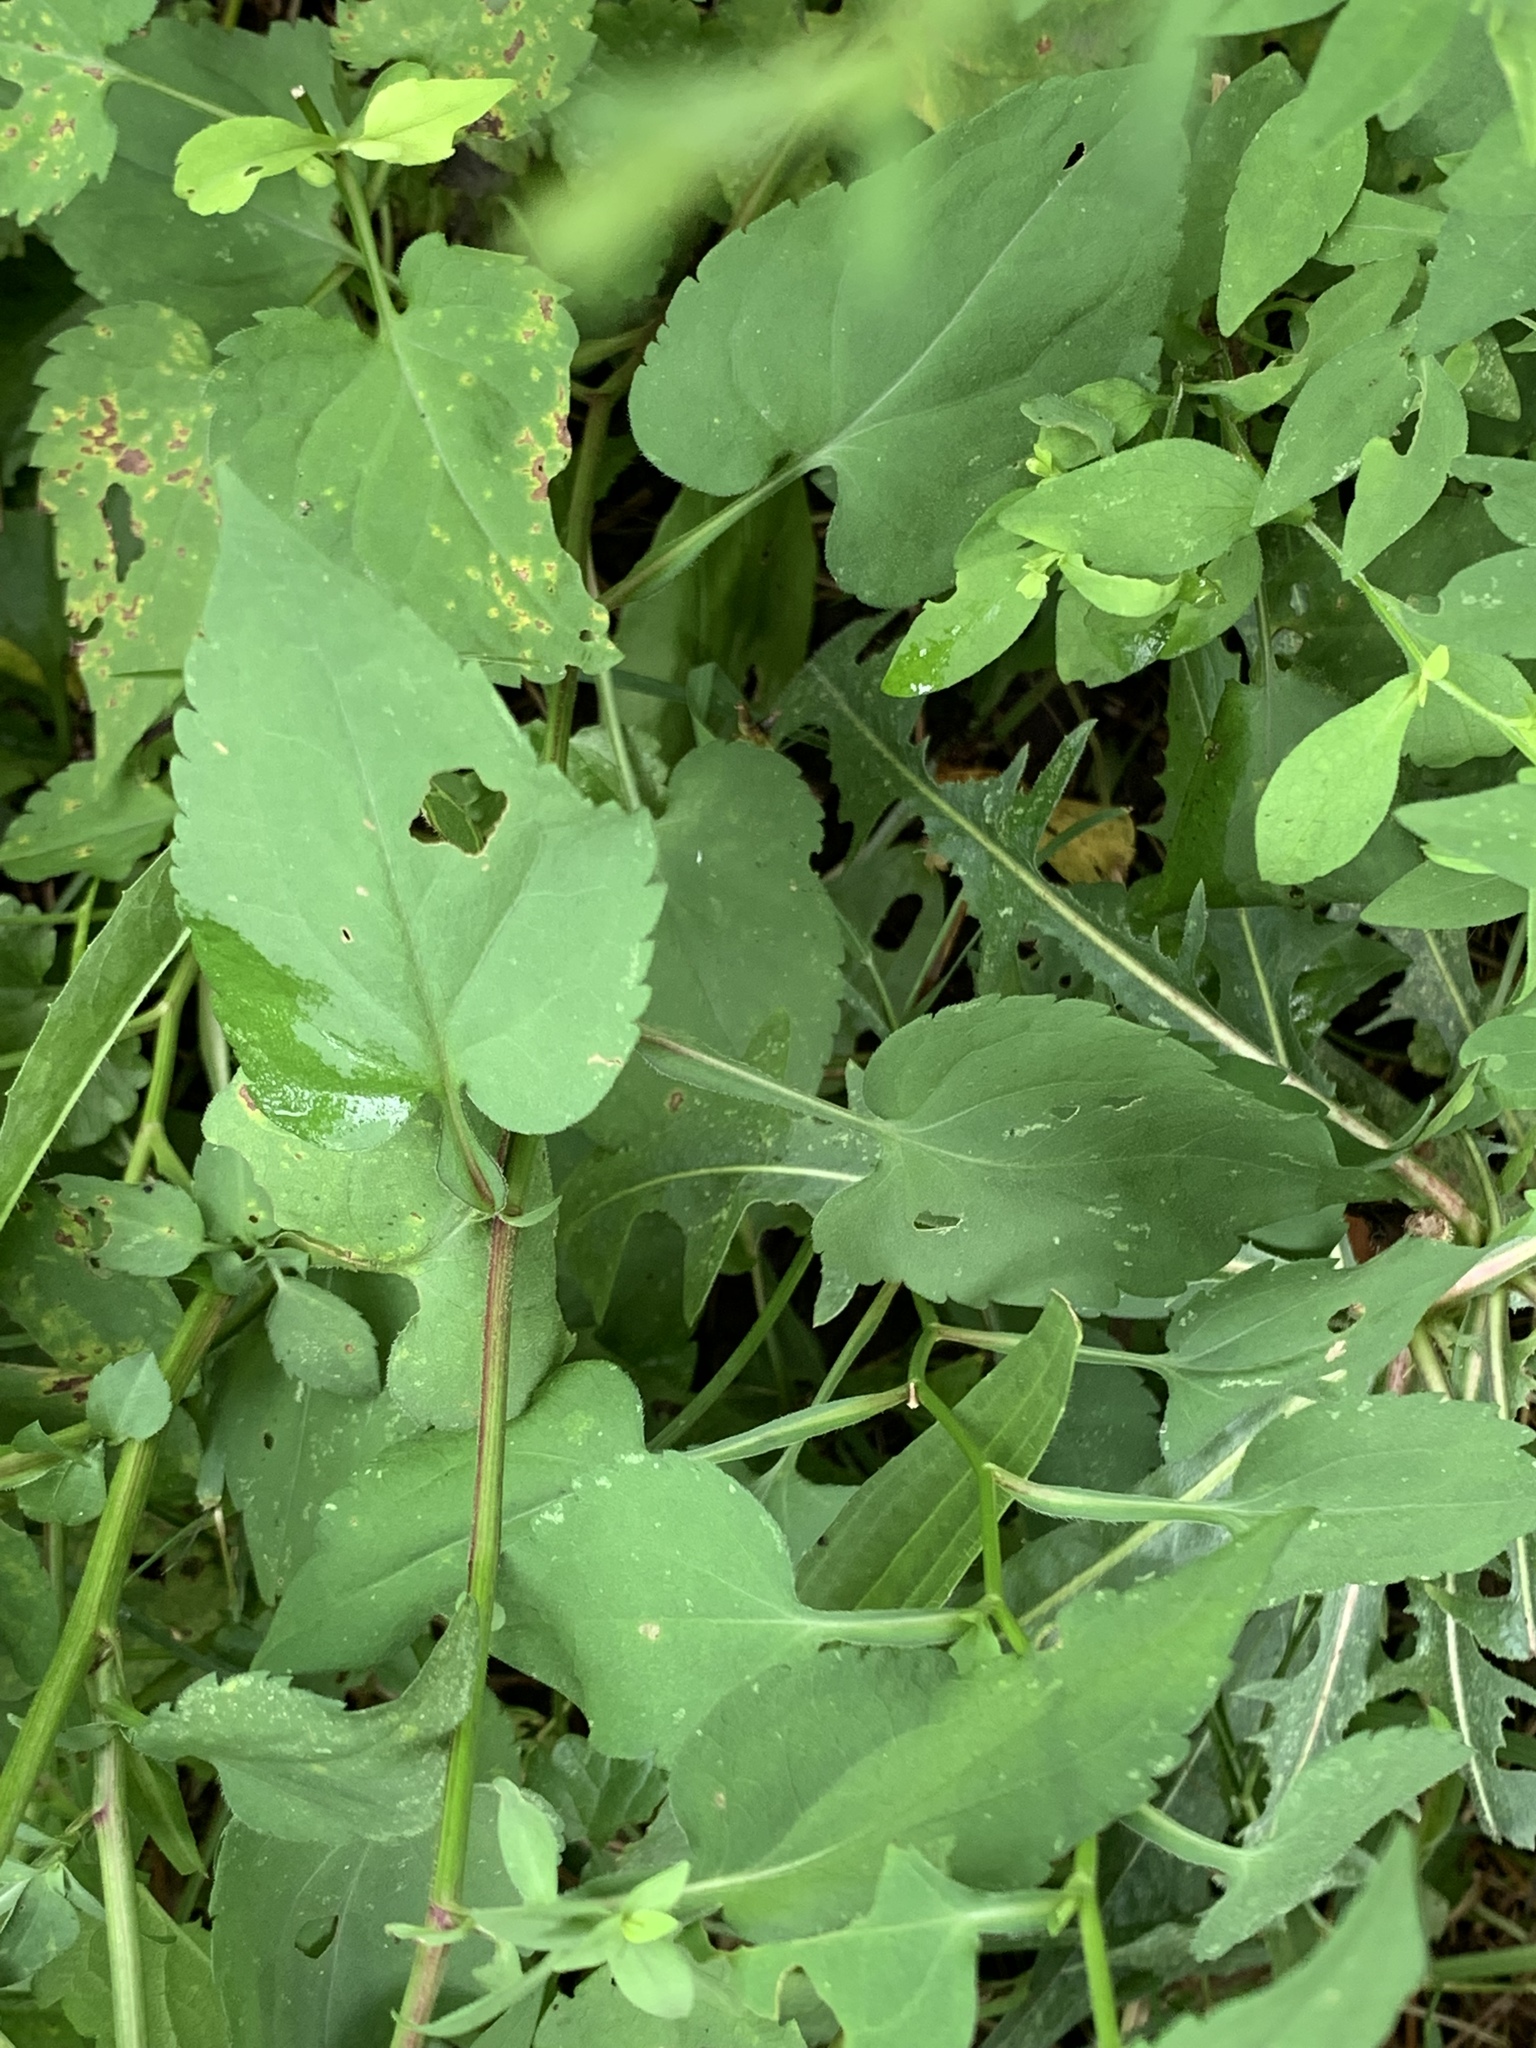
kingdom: Plantae
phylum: Tracheophyta
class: Magnoliopsida
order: Asterales
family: Asteraceae
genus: Symphyotrichum
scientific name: Symphyotrichum cordifolium
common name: Beeweed
